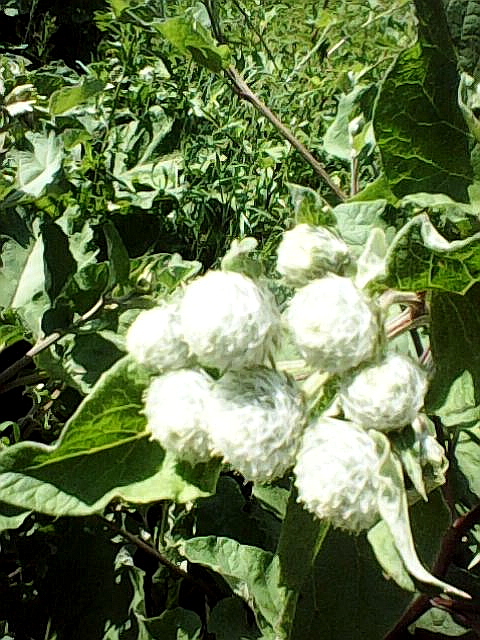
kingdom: Plantae
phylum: Tracheophyta
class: Magnoliopsida
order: Asterales
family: Asteraceae
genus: Arctium
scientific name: Arctium tomentosum
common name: Woolly burdock
